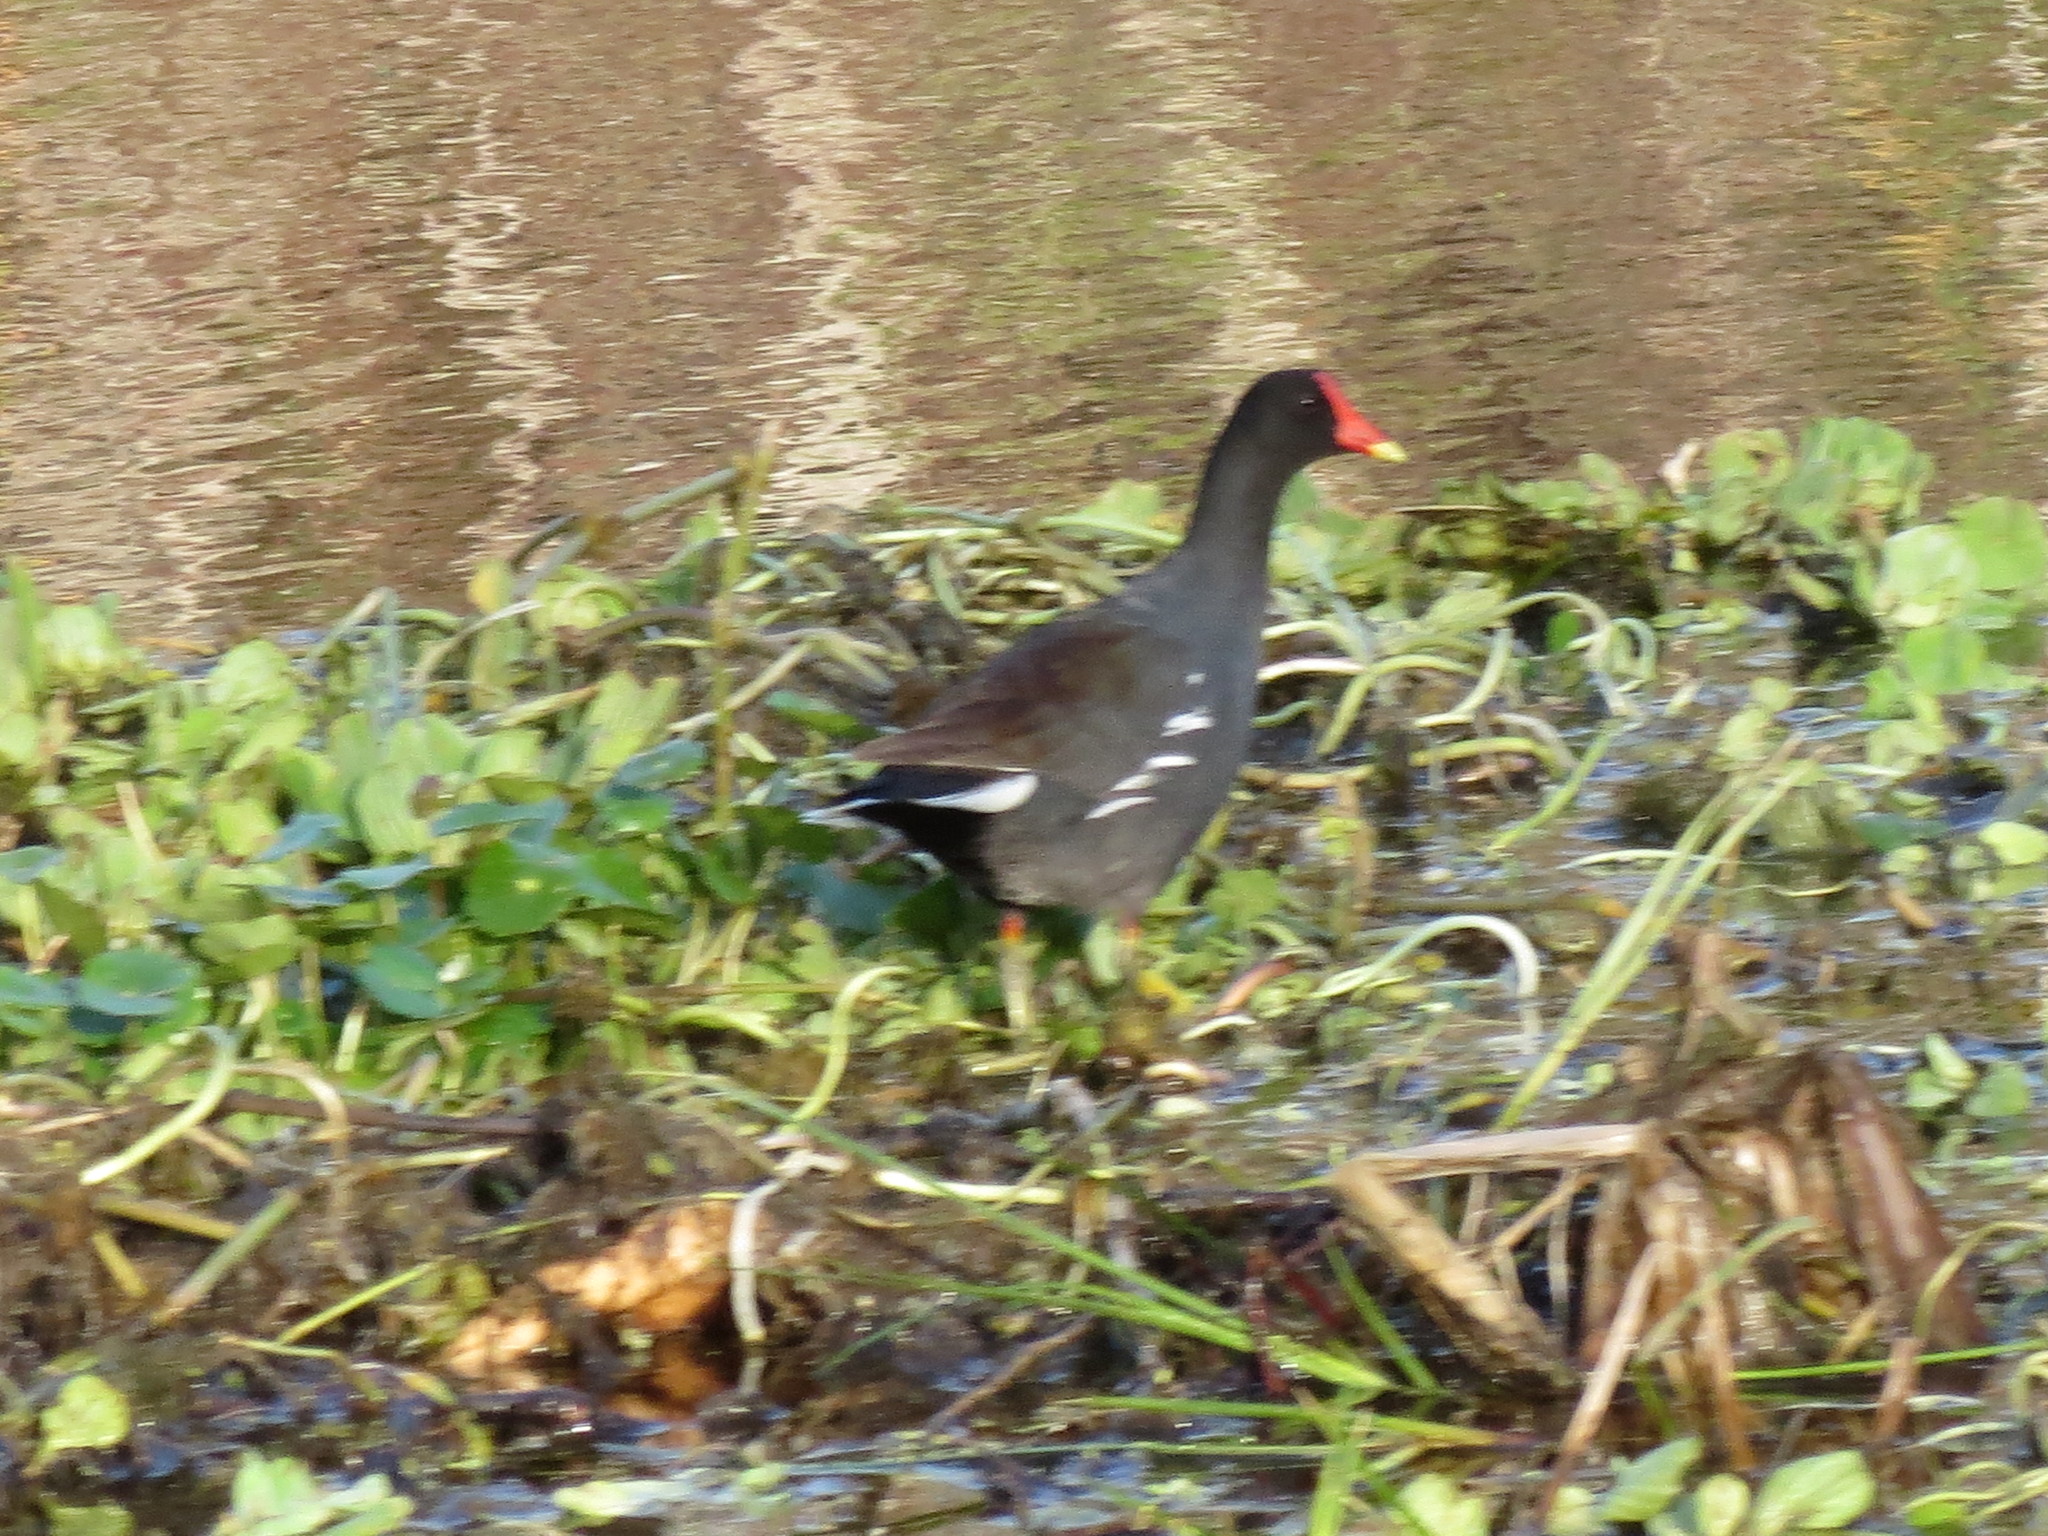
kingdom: Animalia
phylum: Chordata
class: Aves
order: Gruiformes
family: Rallidae
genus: Gallinula
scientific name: Gallinula chloropus
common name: Common moorhen
